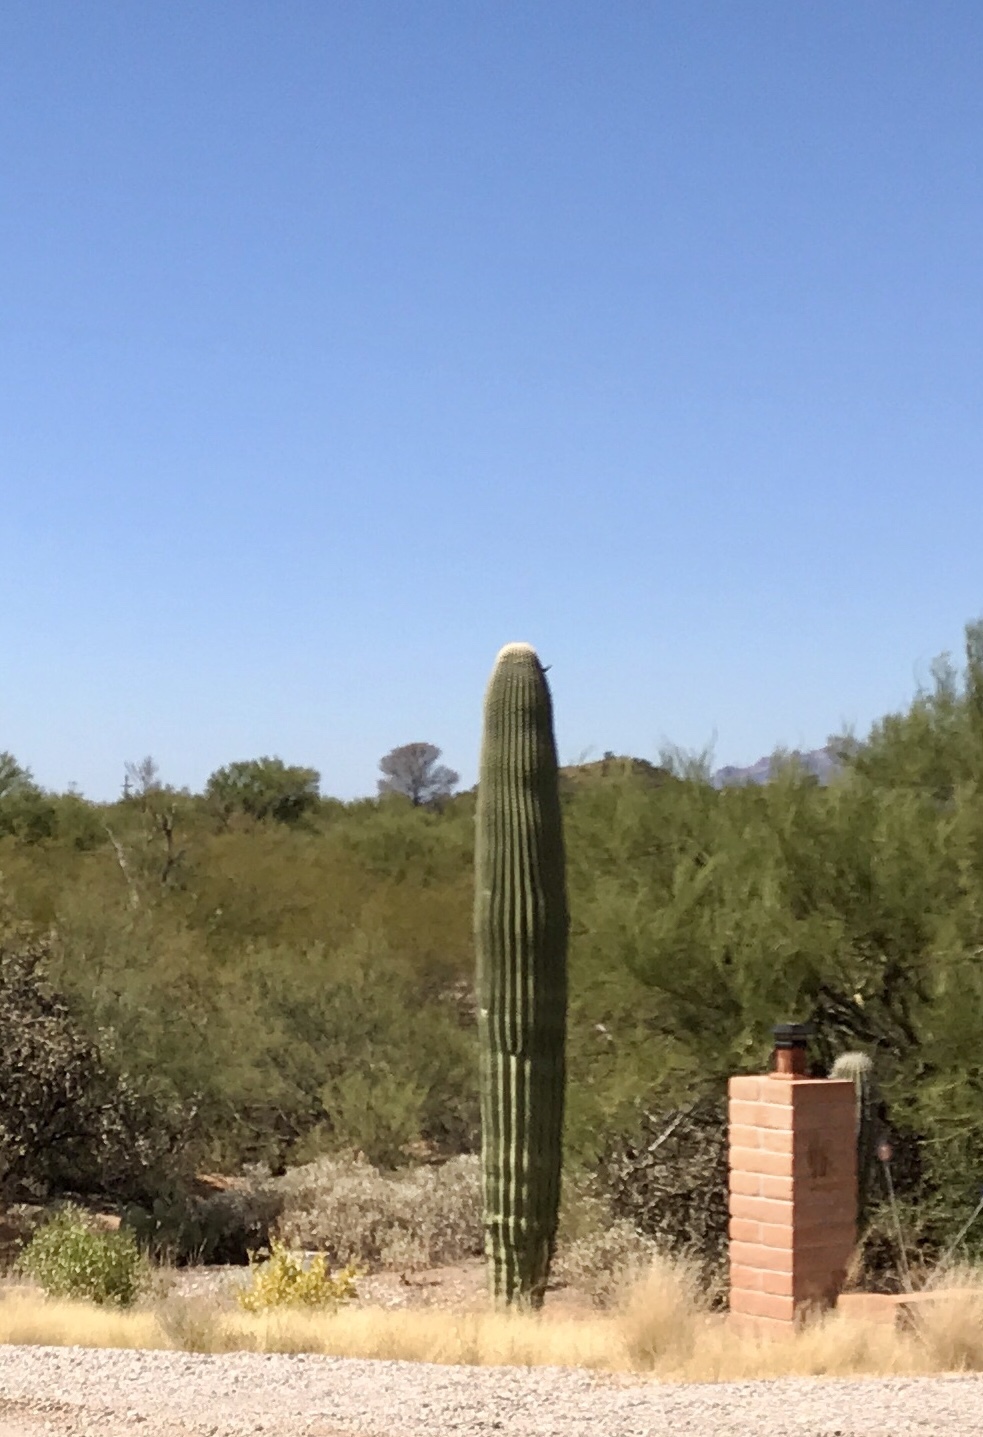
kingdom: Plantae
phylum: Tracheophyta
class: Magnoliopsida
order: Caryophyllales
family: Cactaceae
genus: Carnegiea
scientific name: Carnegiea gigantea
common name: Saguaro
